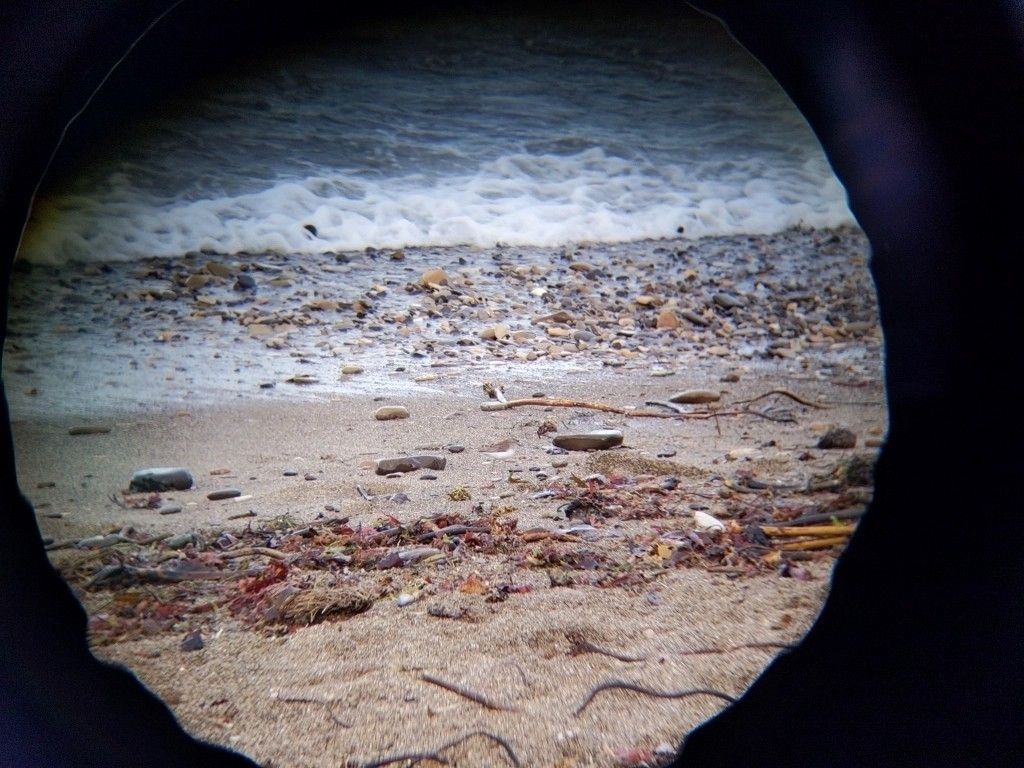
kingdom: Animalia
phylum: Chordata
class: Aves
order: Charadriiformes
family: Scolopacidae
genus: Calidris
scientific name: Calidris minutilla
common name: Least sandpiper
